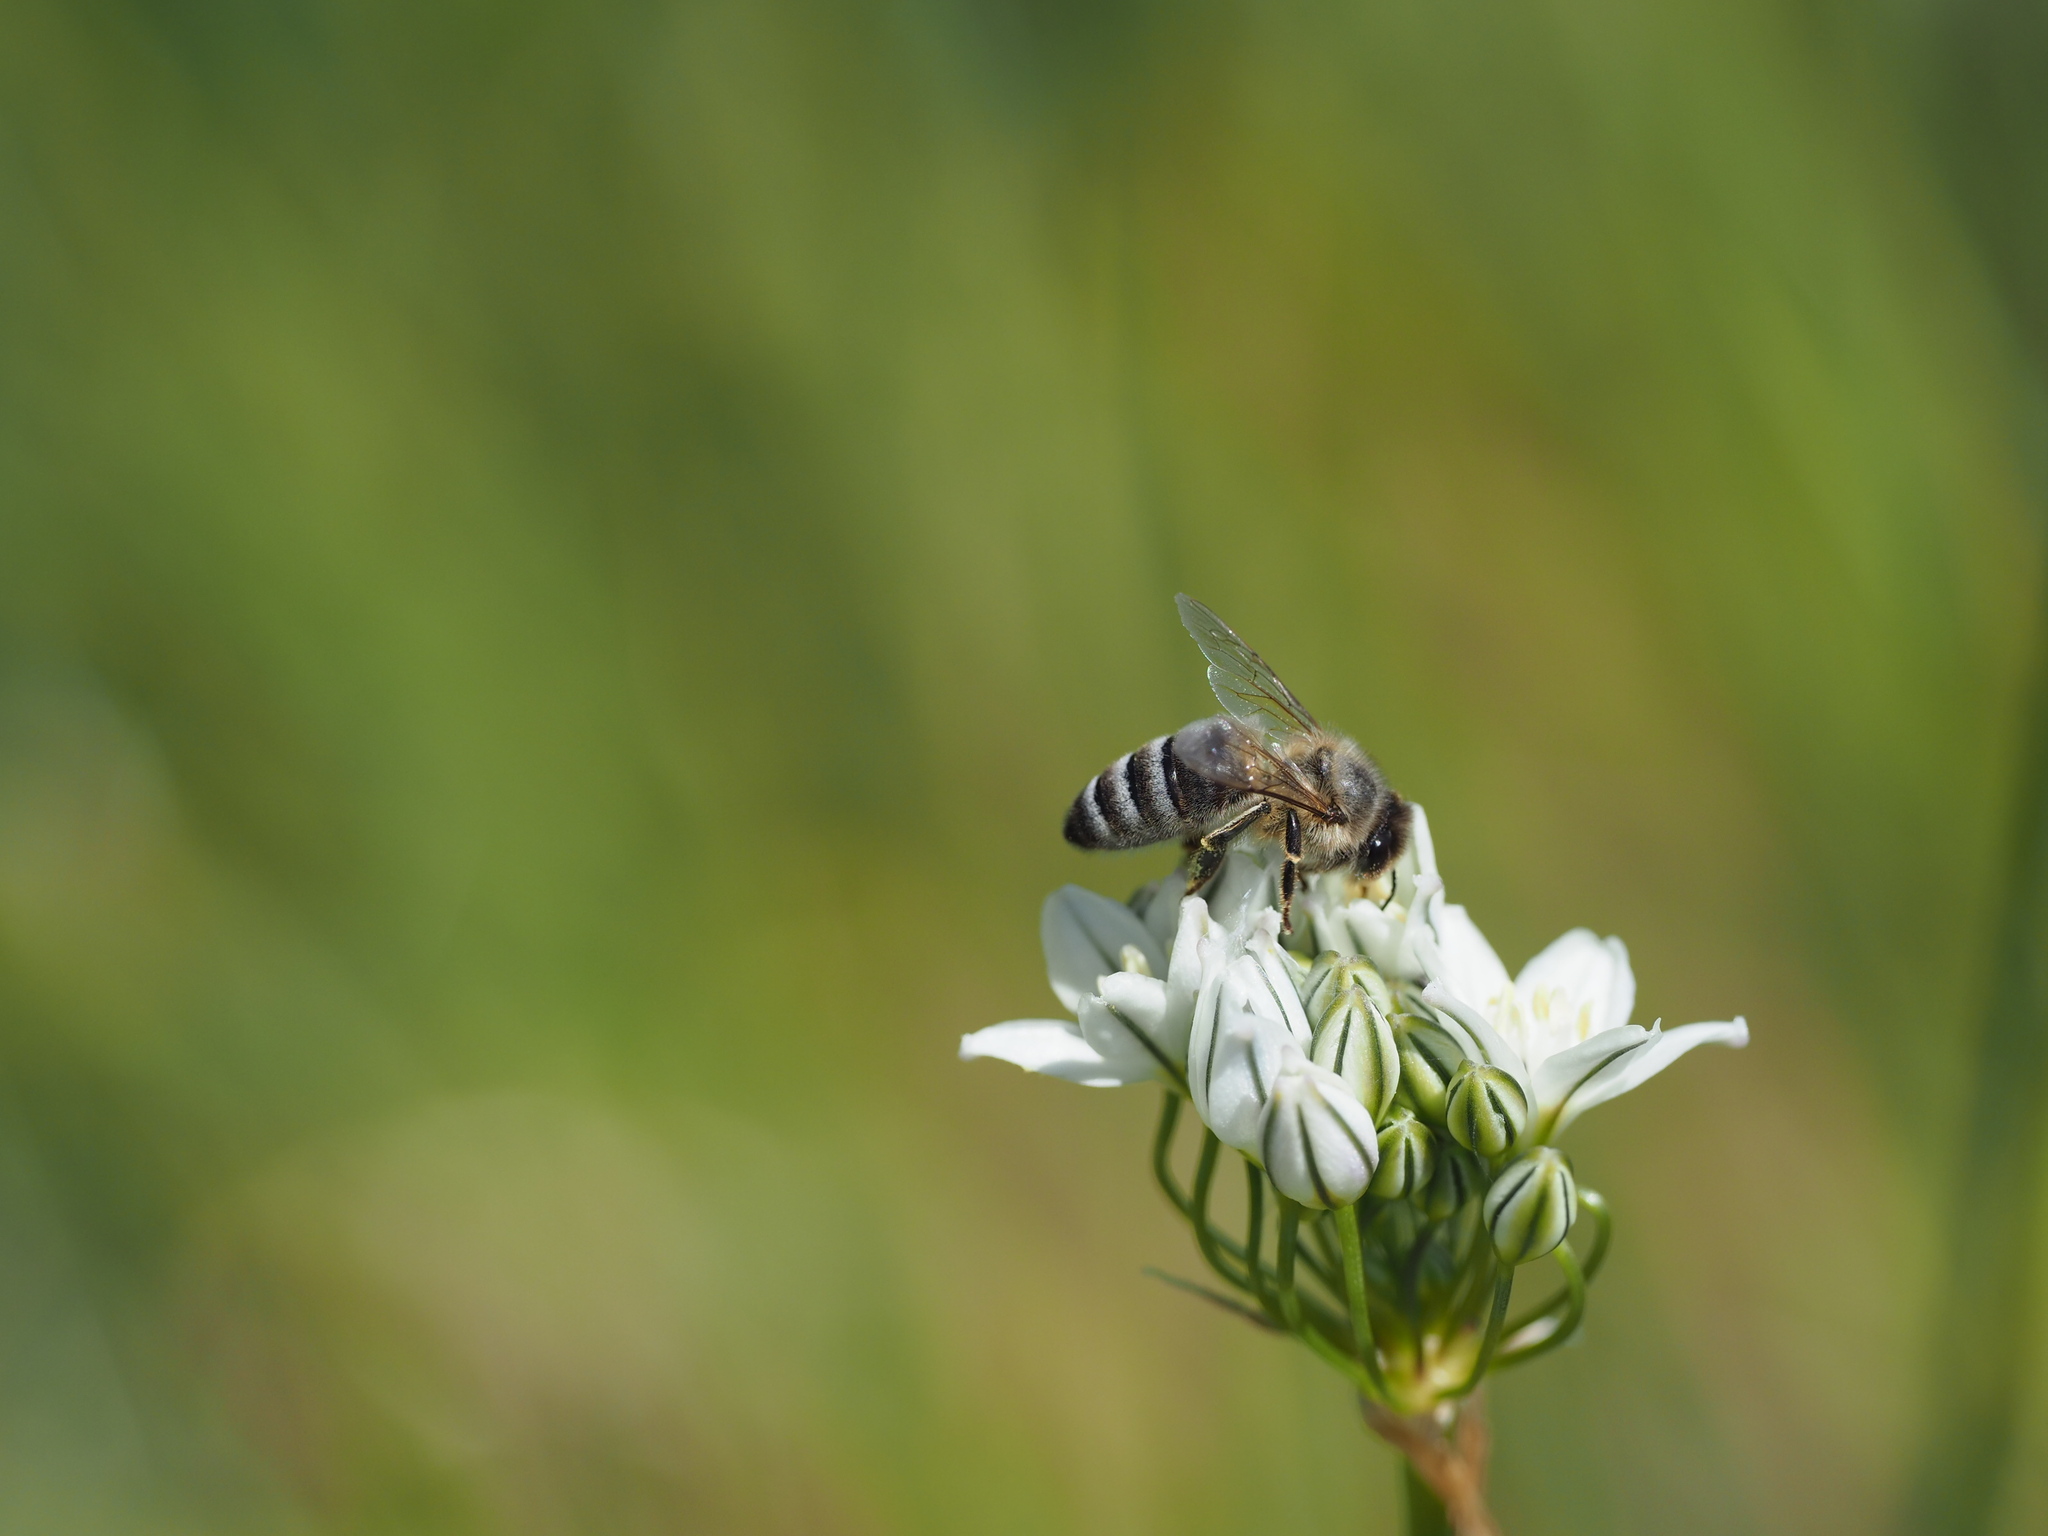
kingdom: Animalia
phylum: Arthropoda
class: Insecta
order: Hymenoptera
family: Apidae
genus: Apis
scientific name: Apis mellifera
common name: Honey bee
